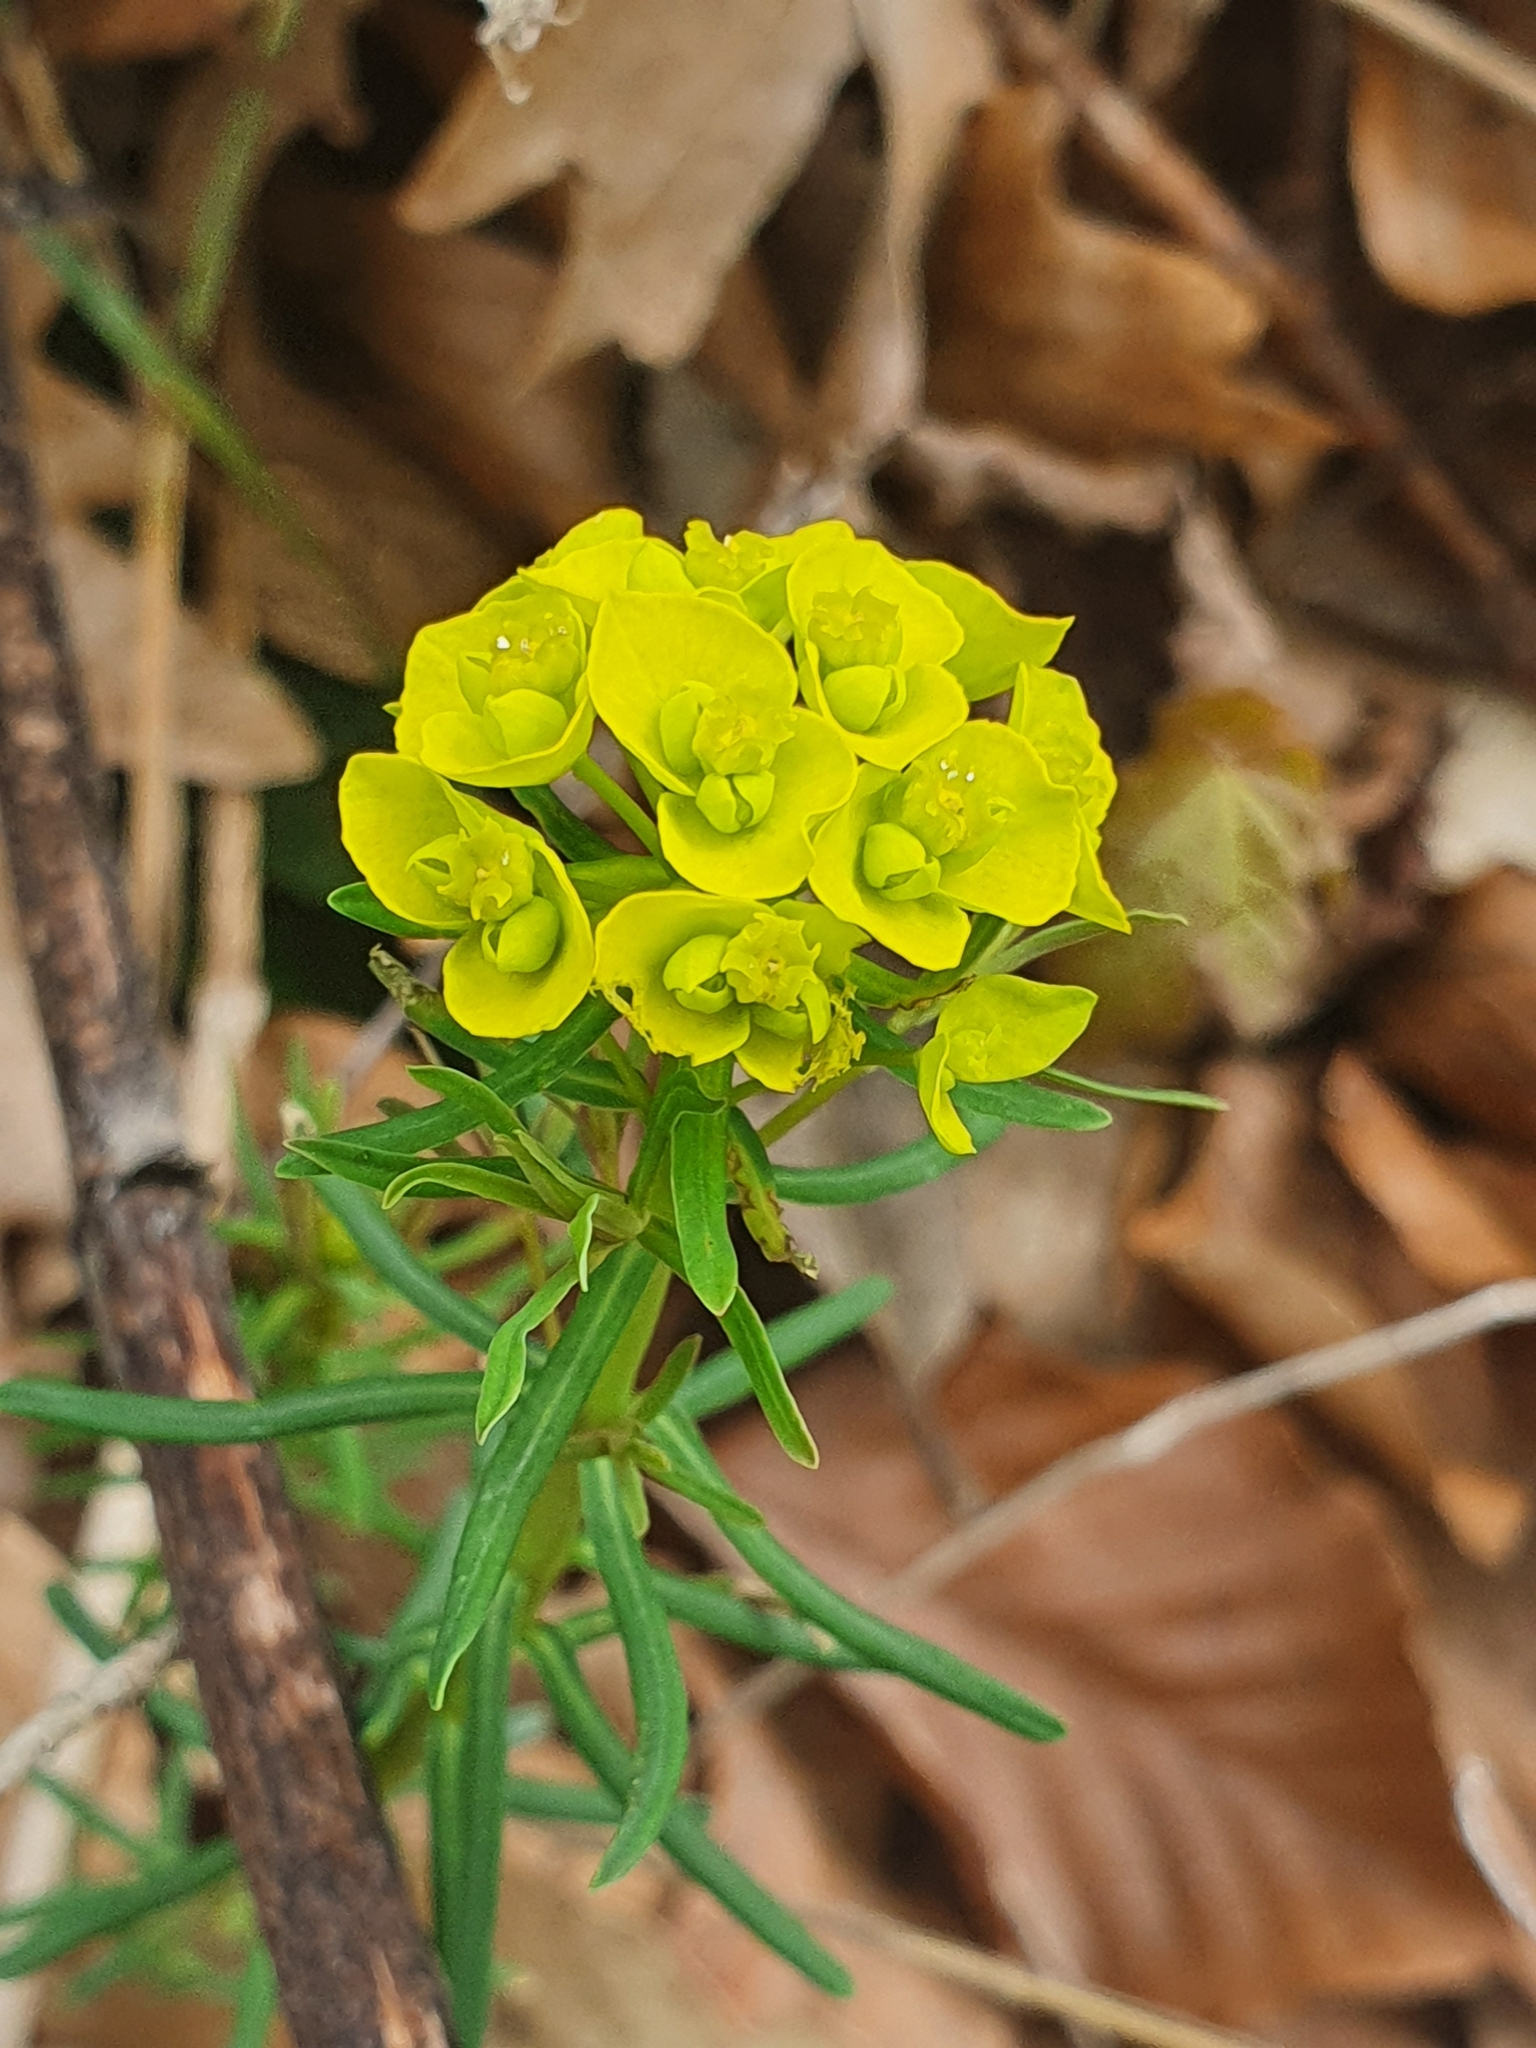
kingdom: Plantae
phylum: Tracheophyta
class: Magnoliopsida
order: Malpighiales
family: Euphorbiaceae
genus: Euphorbia
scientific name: Euphorbia cyparissias
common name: Cypress spurge
